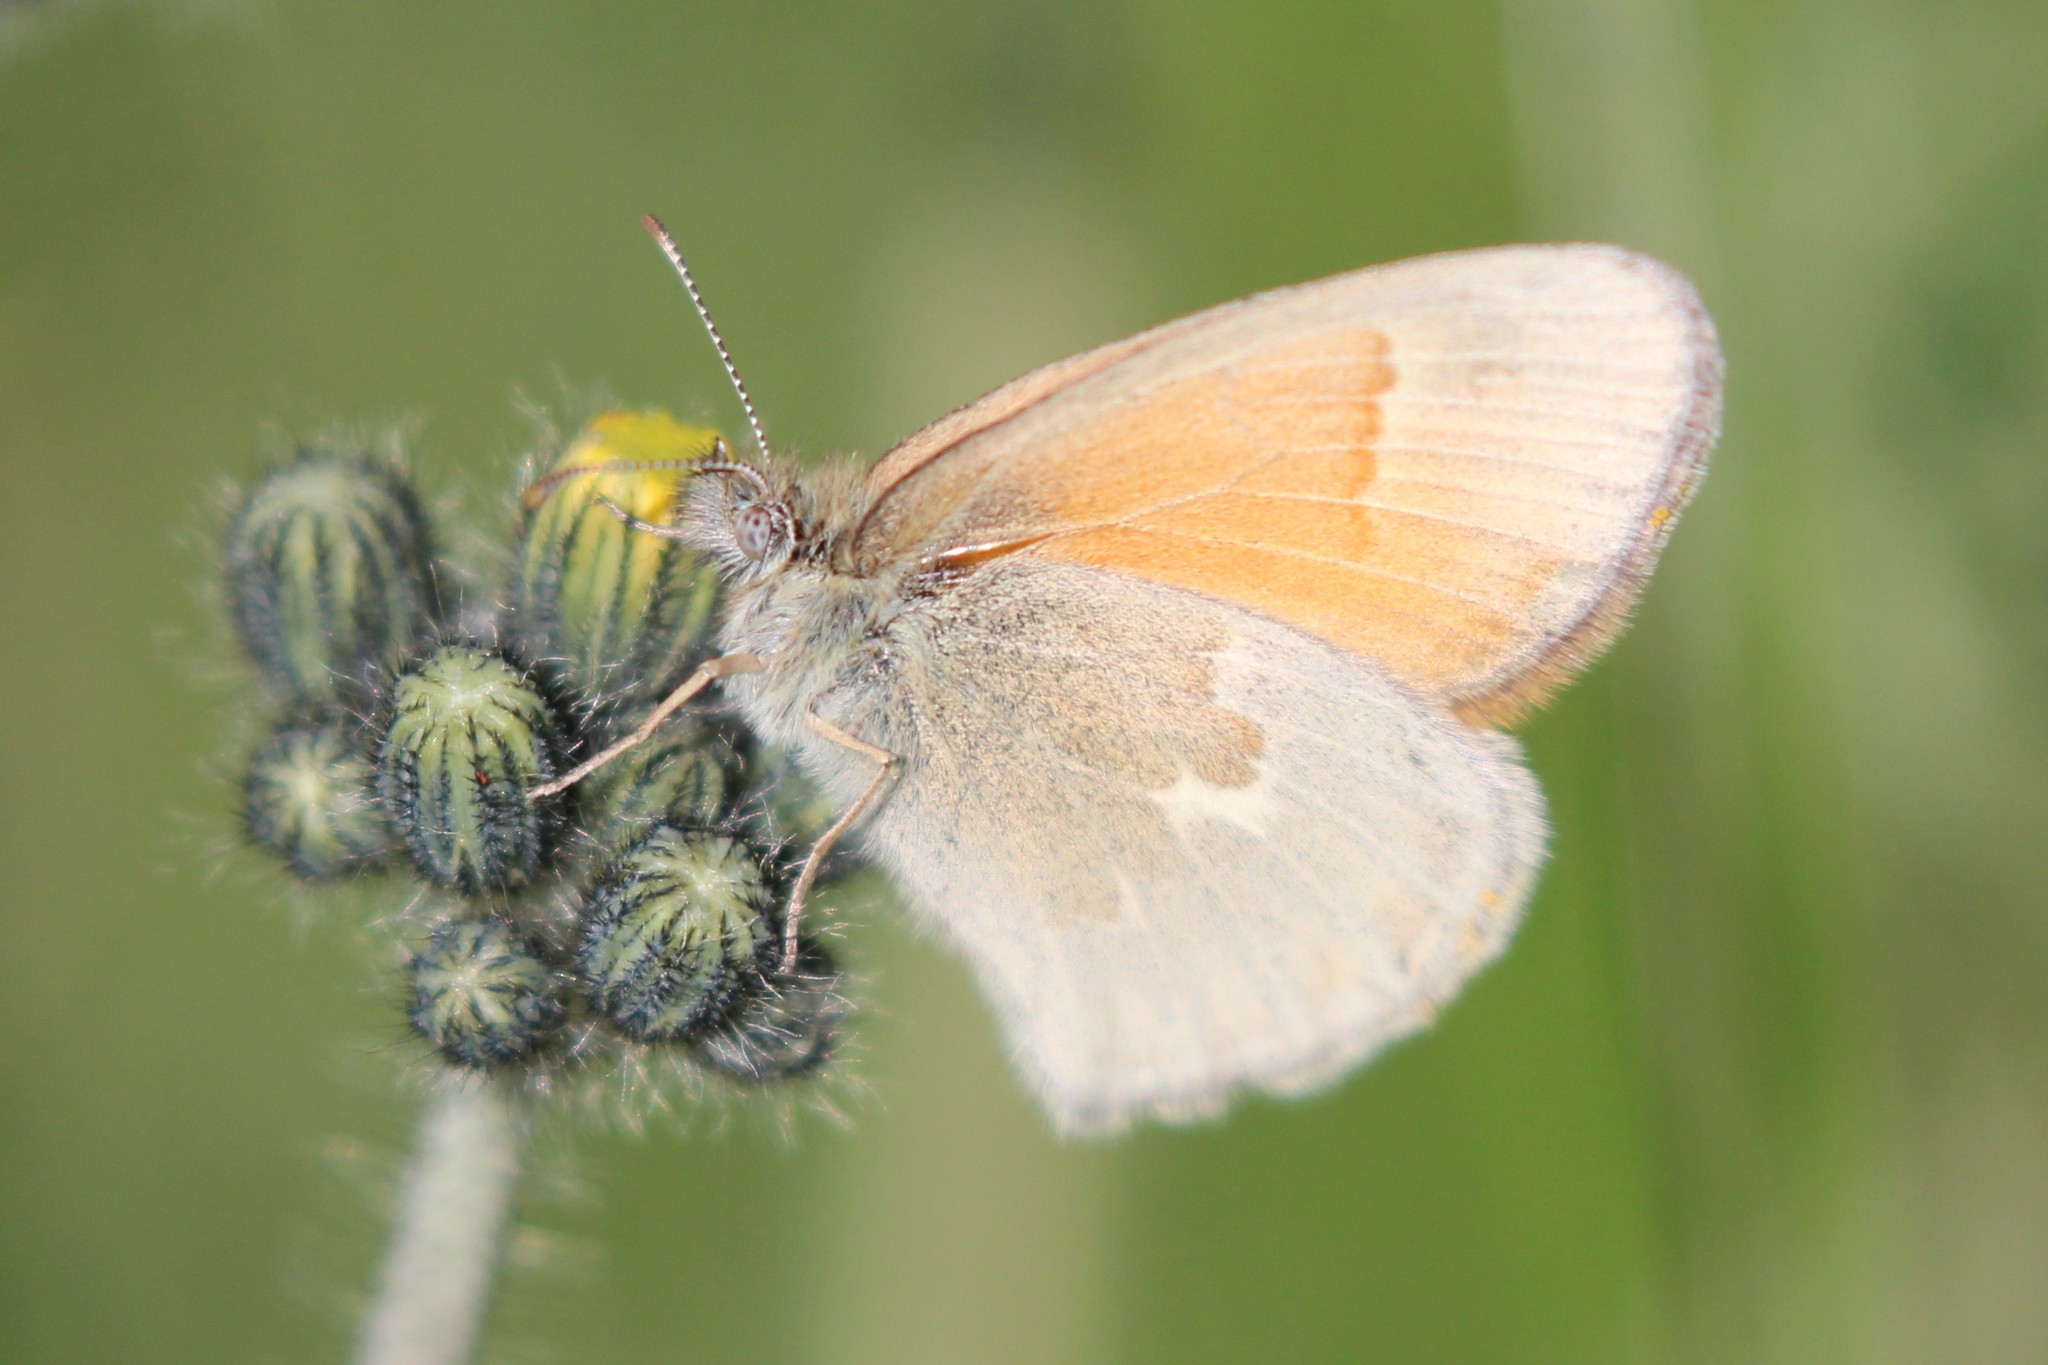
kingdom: Animalia
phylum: Arthropoda
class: Insecta
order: Lepidoptera
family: Nymphalidae
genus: Coenonympha
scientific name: Coenonympha california
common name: Common ringlet
